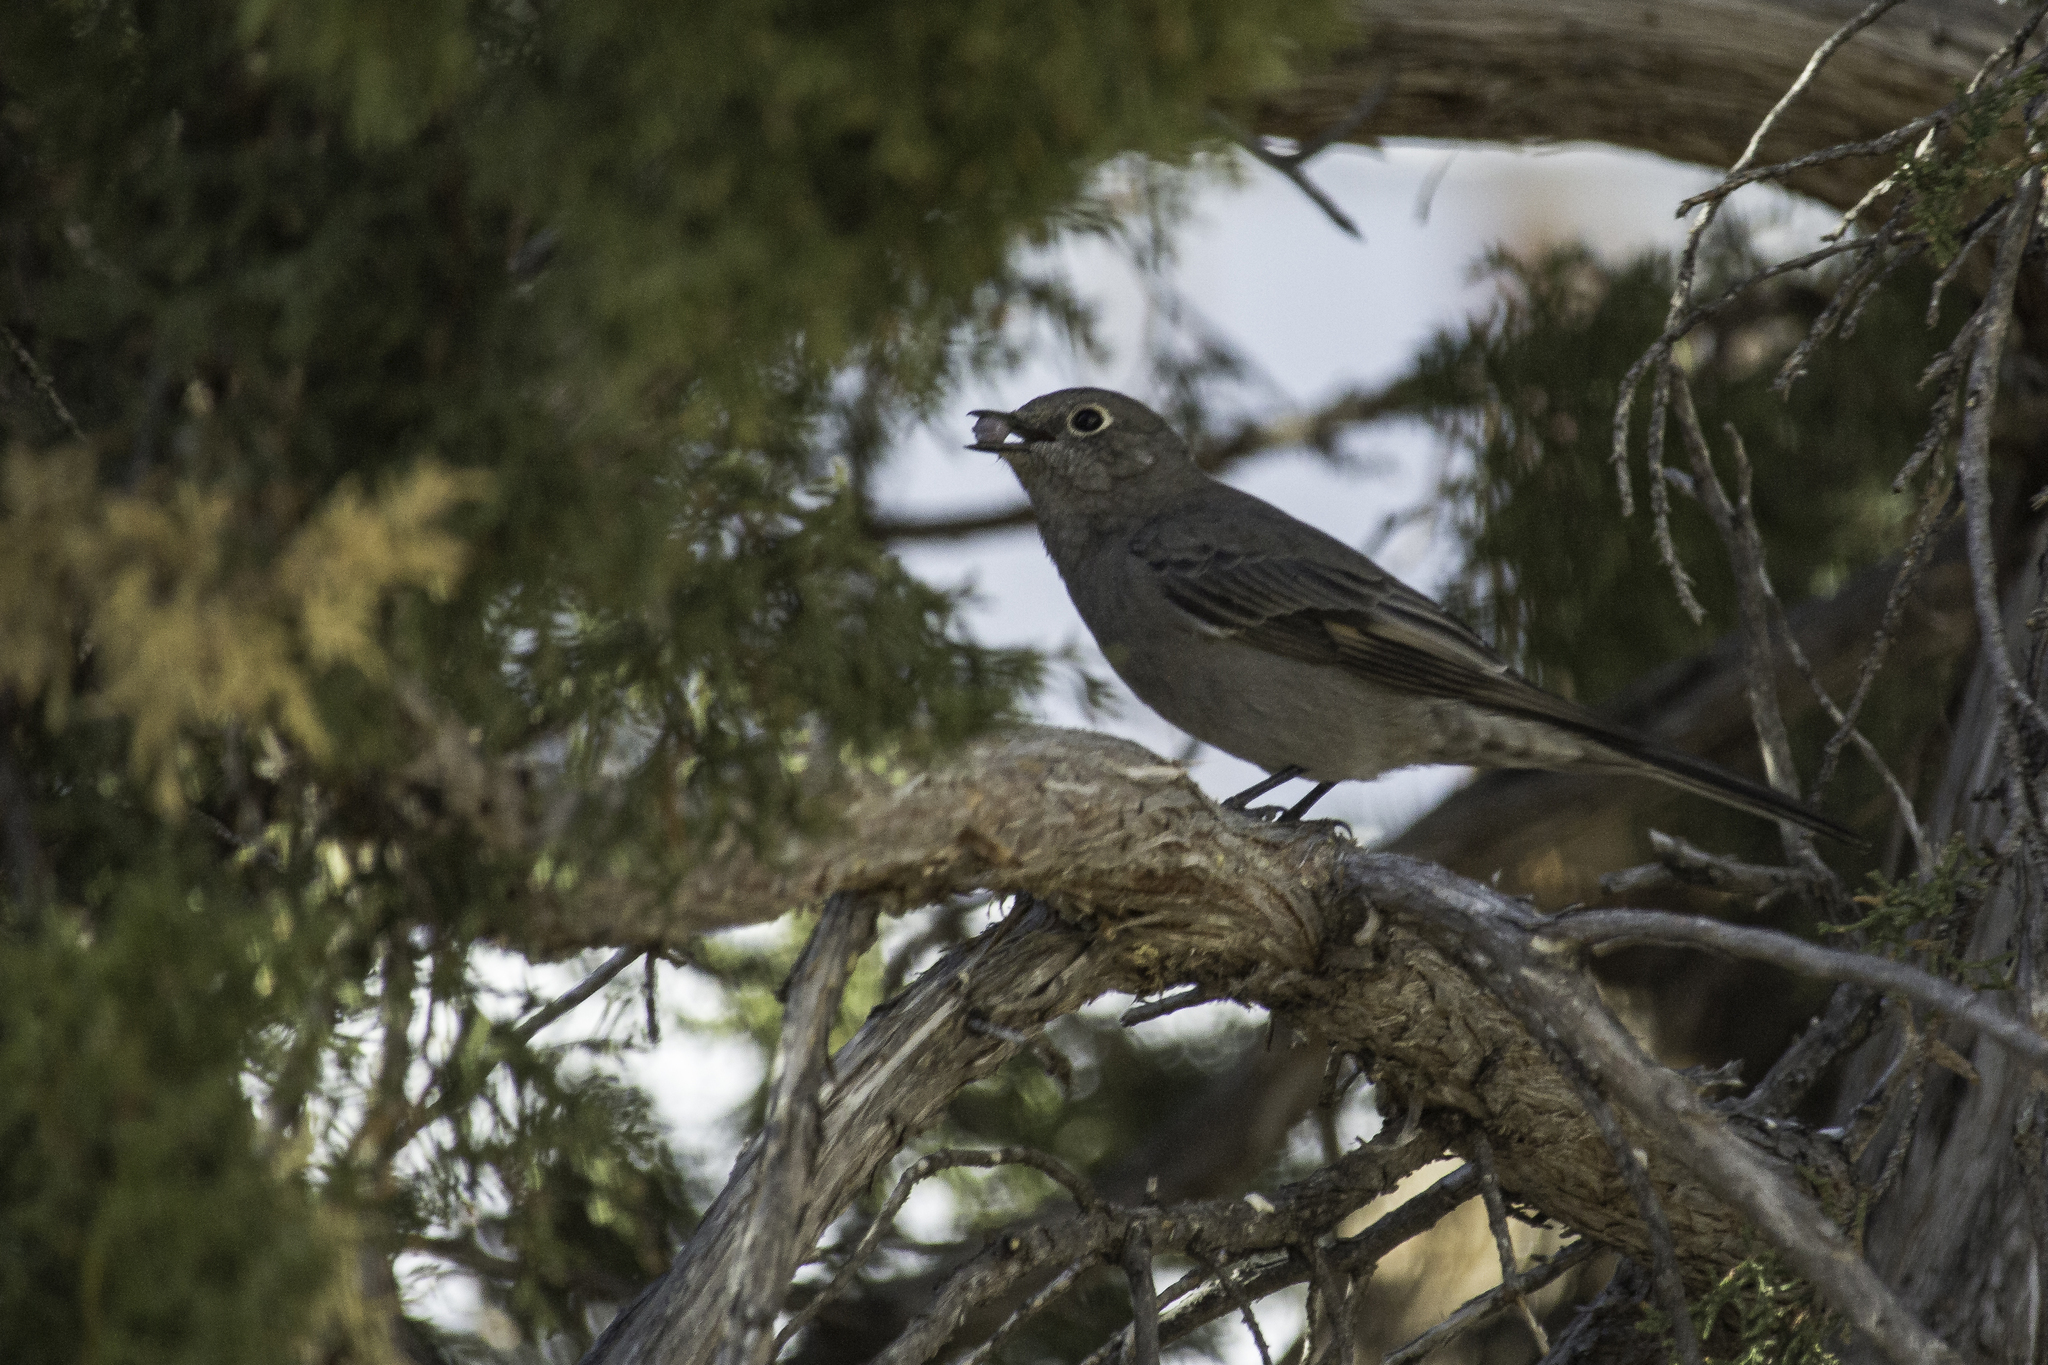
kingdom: Animalia
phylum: Chordata
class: Aves
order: Passeriformes
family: Turdidae
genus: Myadestes
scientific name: Myadestes townsendi
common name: Townsend's solitaire
